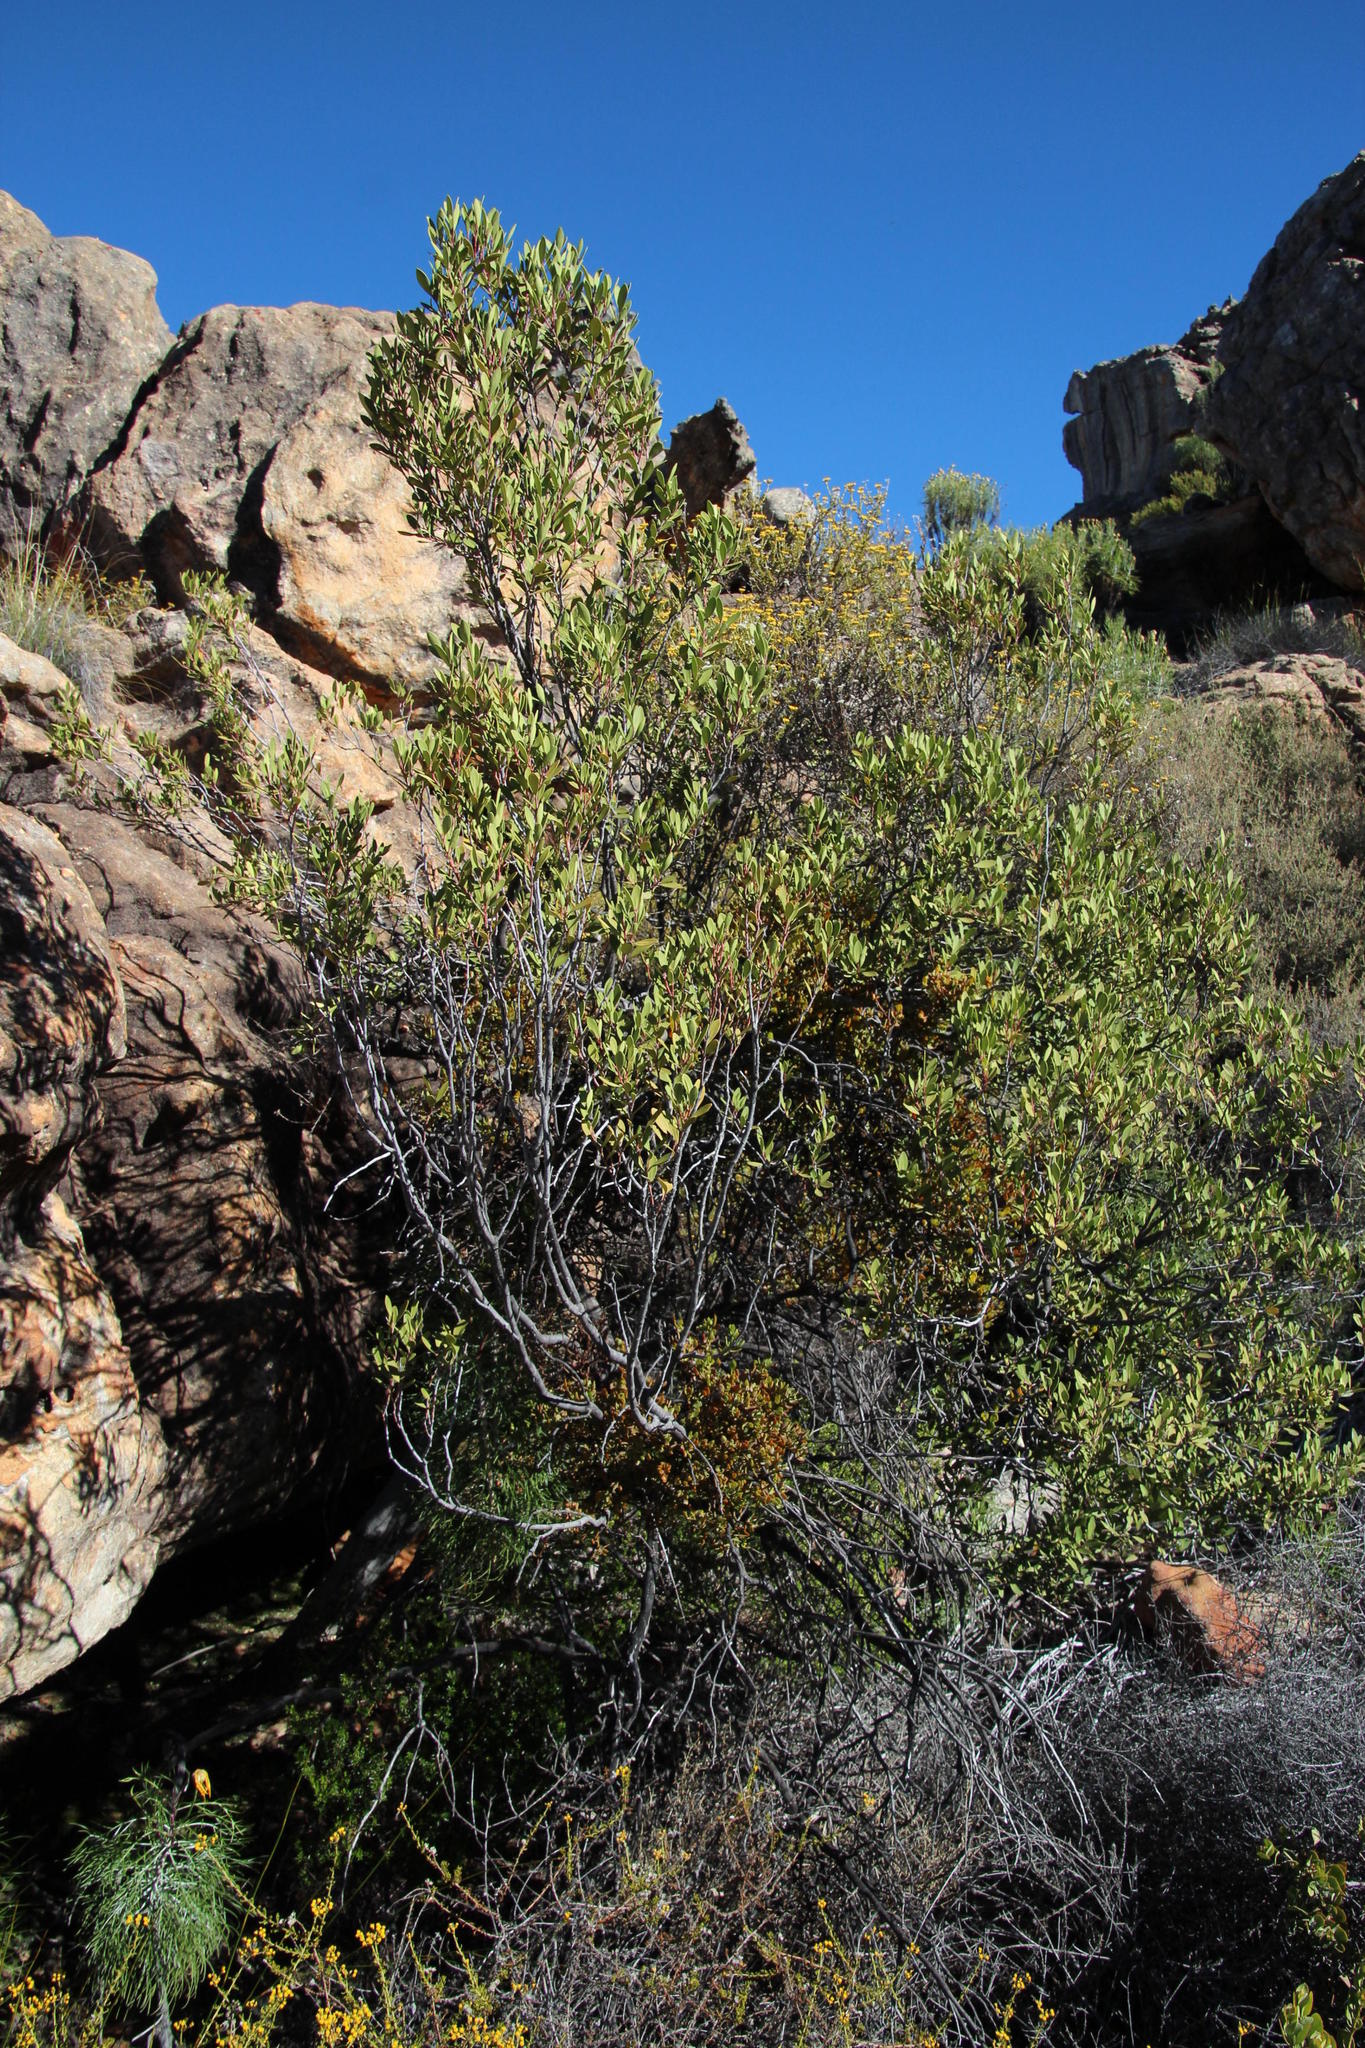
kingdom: Plantae
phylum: Tracheophyta
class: Magnoliopsida
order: Celastrales
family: Celastraceae
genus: Gymnosporia
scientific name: Gymnosporia laurina
